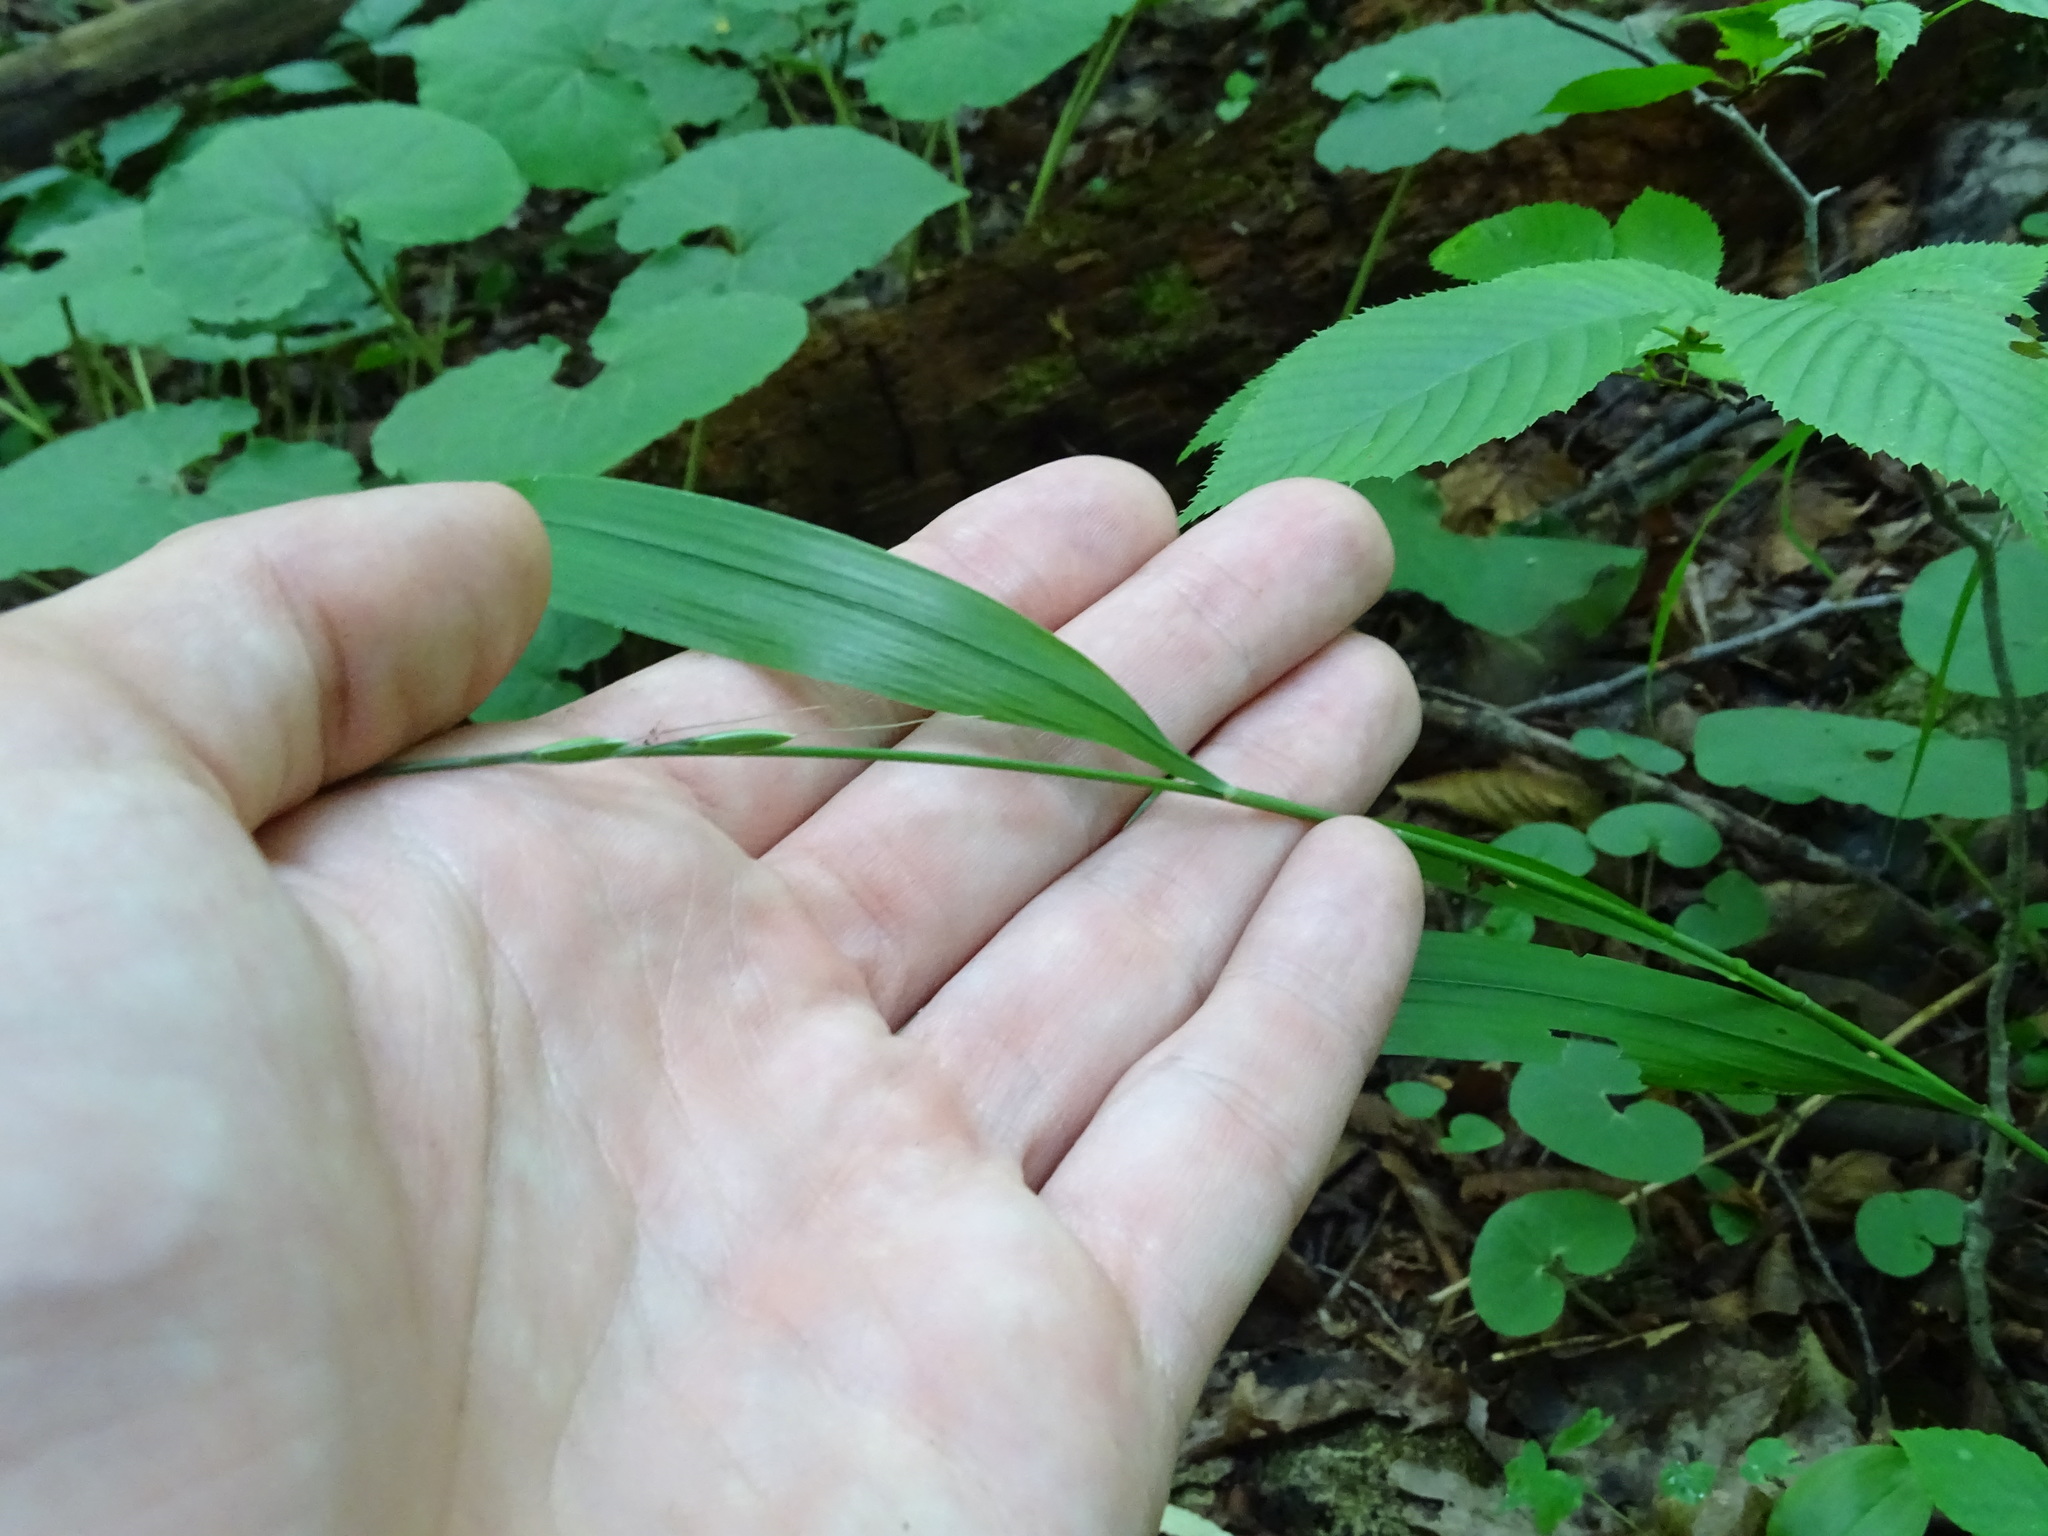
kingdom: Plantae
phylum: Tracheophyta
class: Liliopsida
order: Poales
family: Poaceae
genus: Patis
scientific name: Patis racemosa
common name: Black-fruited mountain rice
